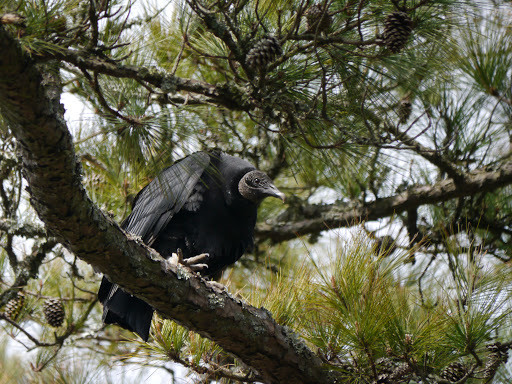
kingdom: Animalia
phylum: Chordata
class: Aves
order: Accipitriformes
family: Cathartidae
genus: Coragyps
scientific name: Coragyps atratus
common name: Black vulture
